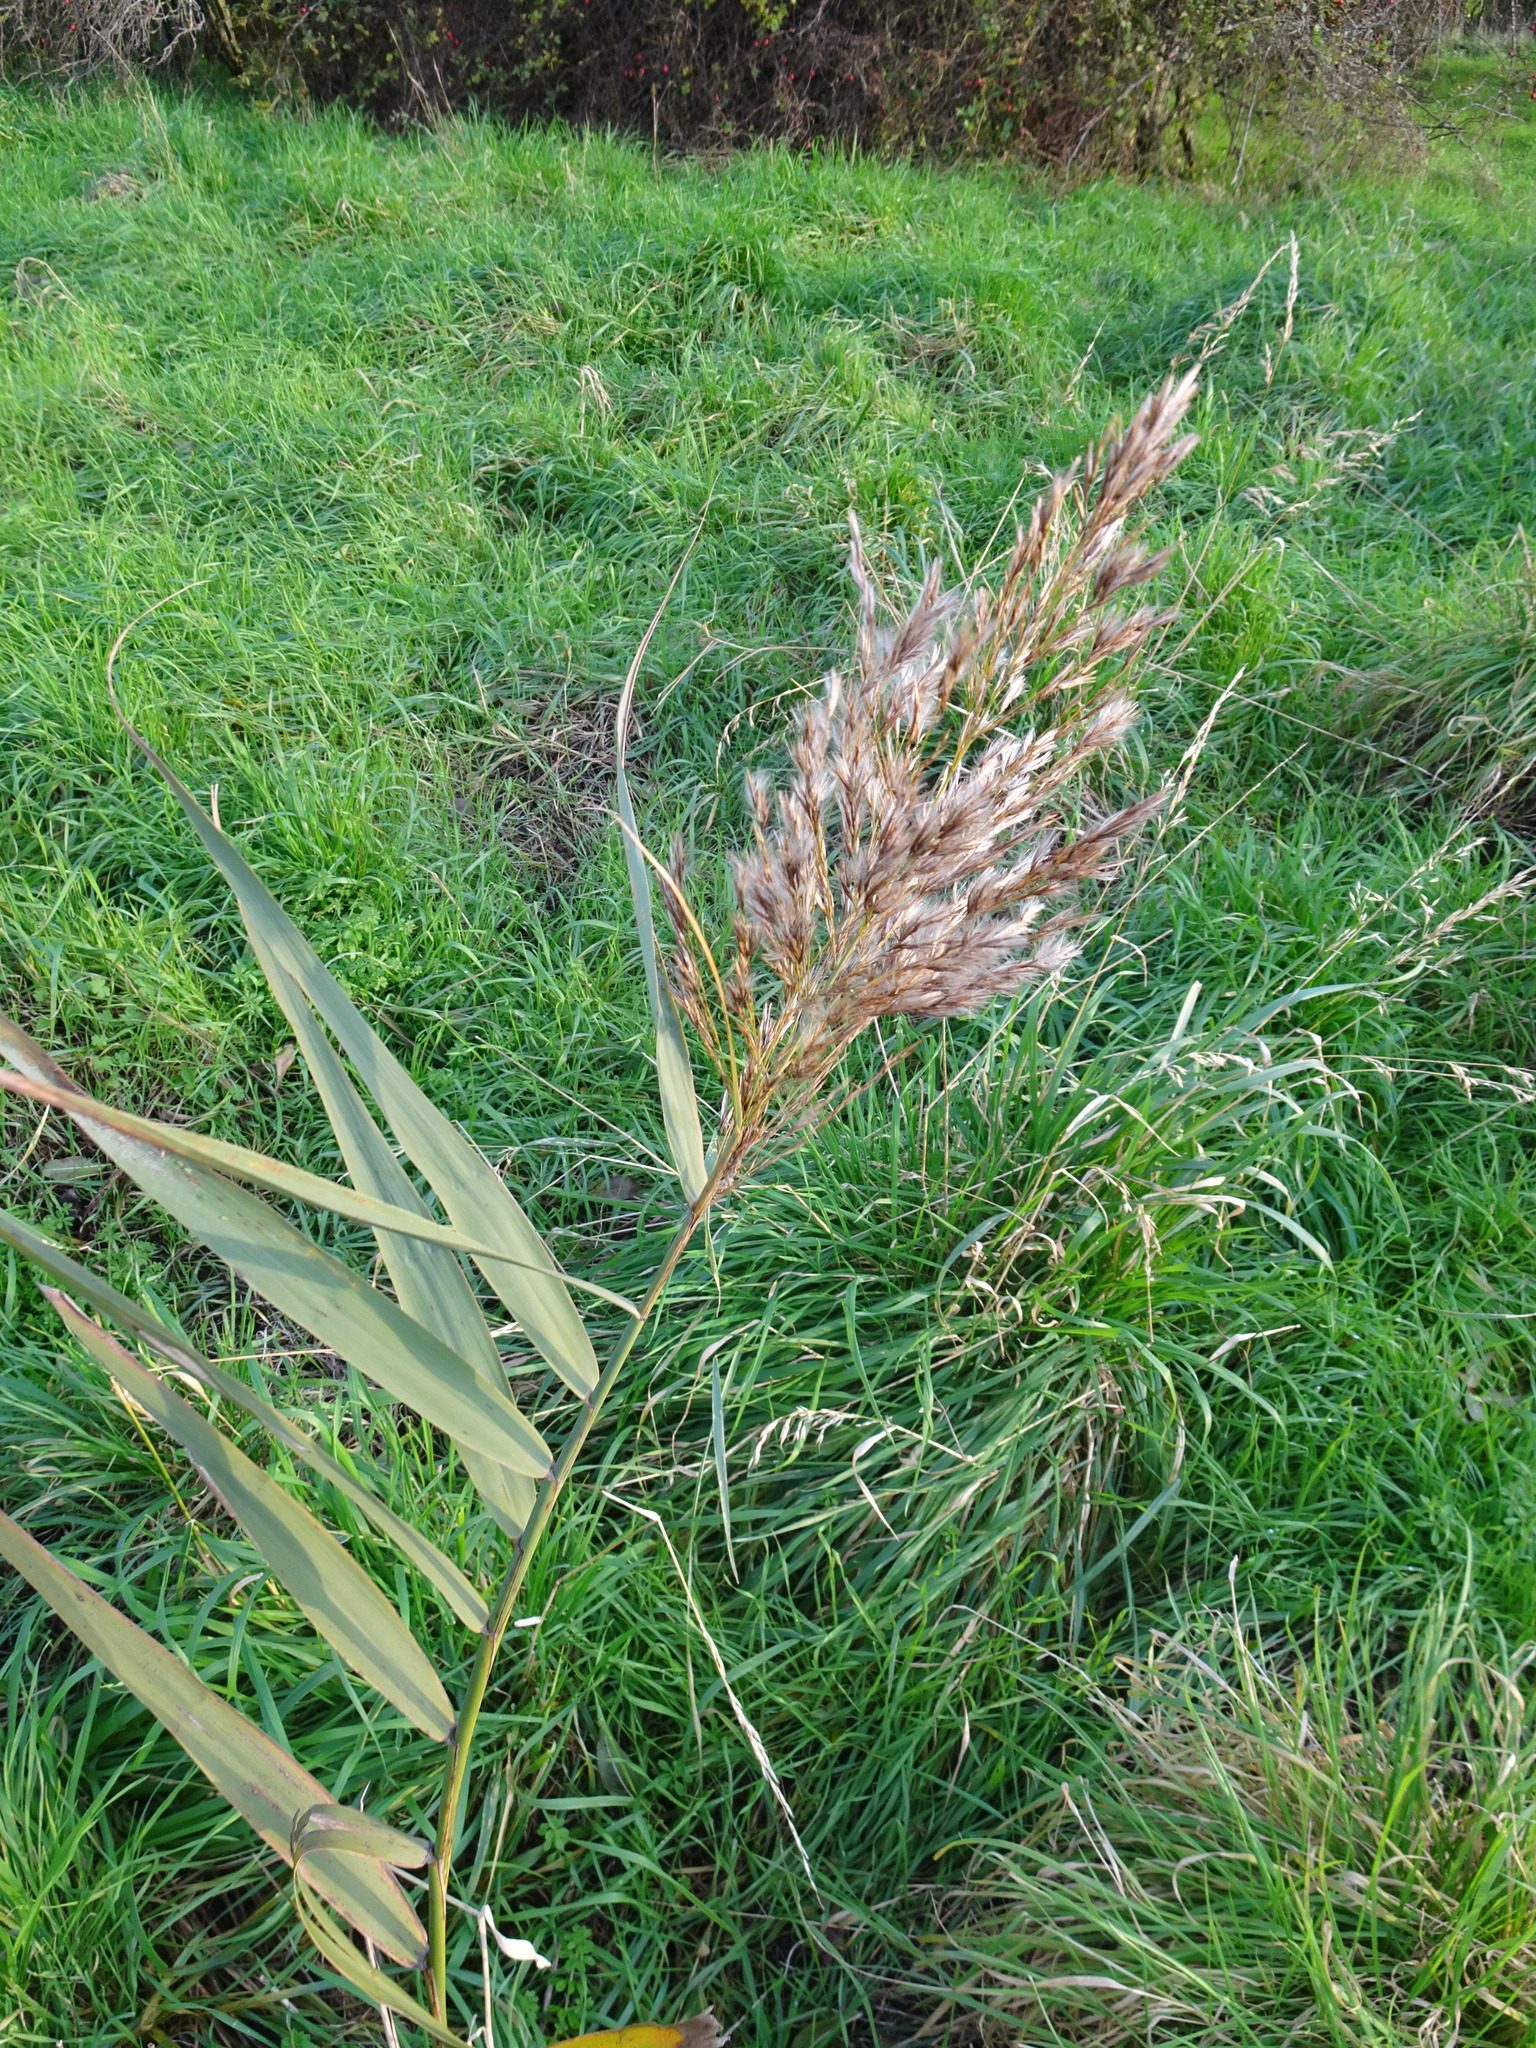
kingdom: Plantae
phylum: Tracheophyta
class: Liliopsida
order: Poales
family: Poaceae
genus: Phragmites
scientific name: Phragmites australis
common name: Common reed
